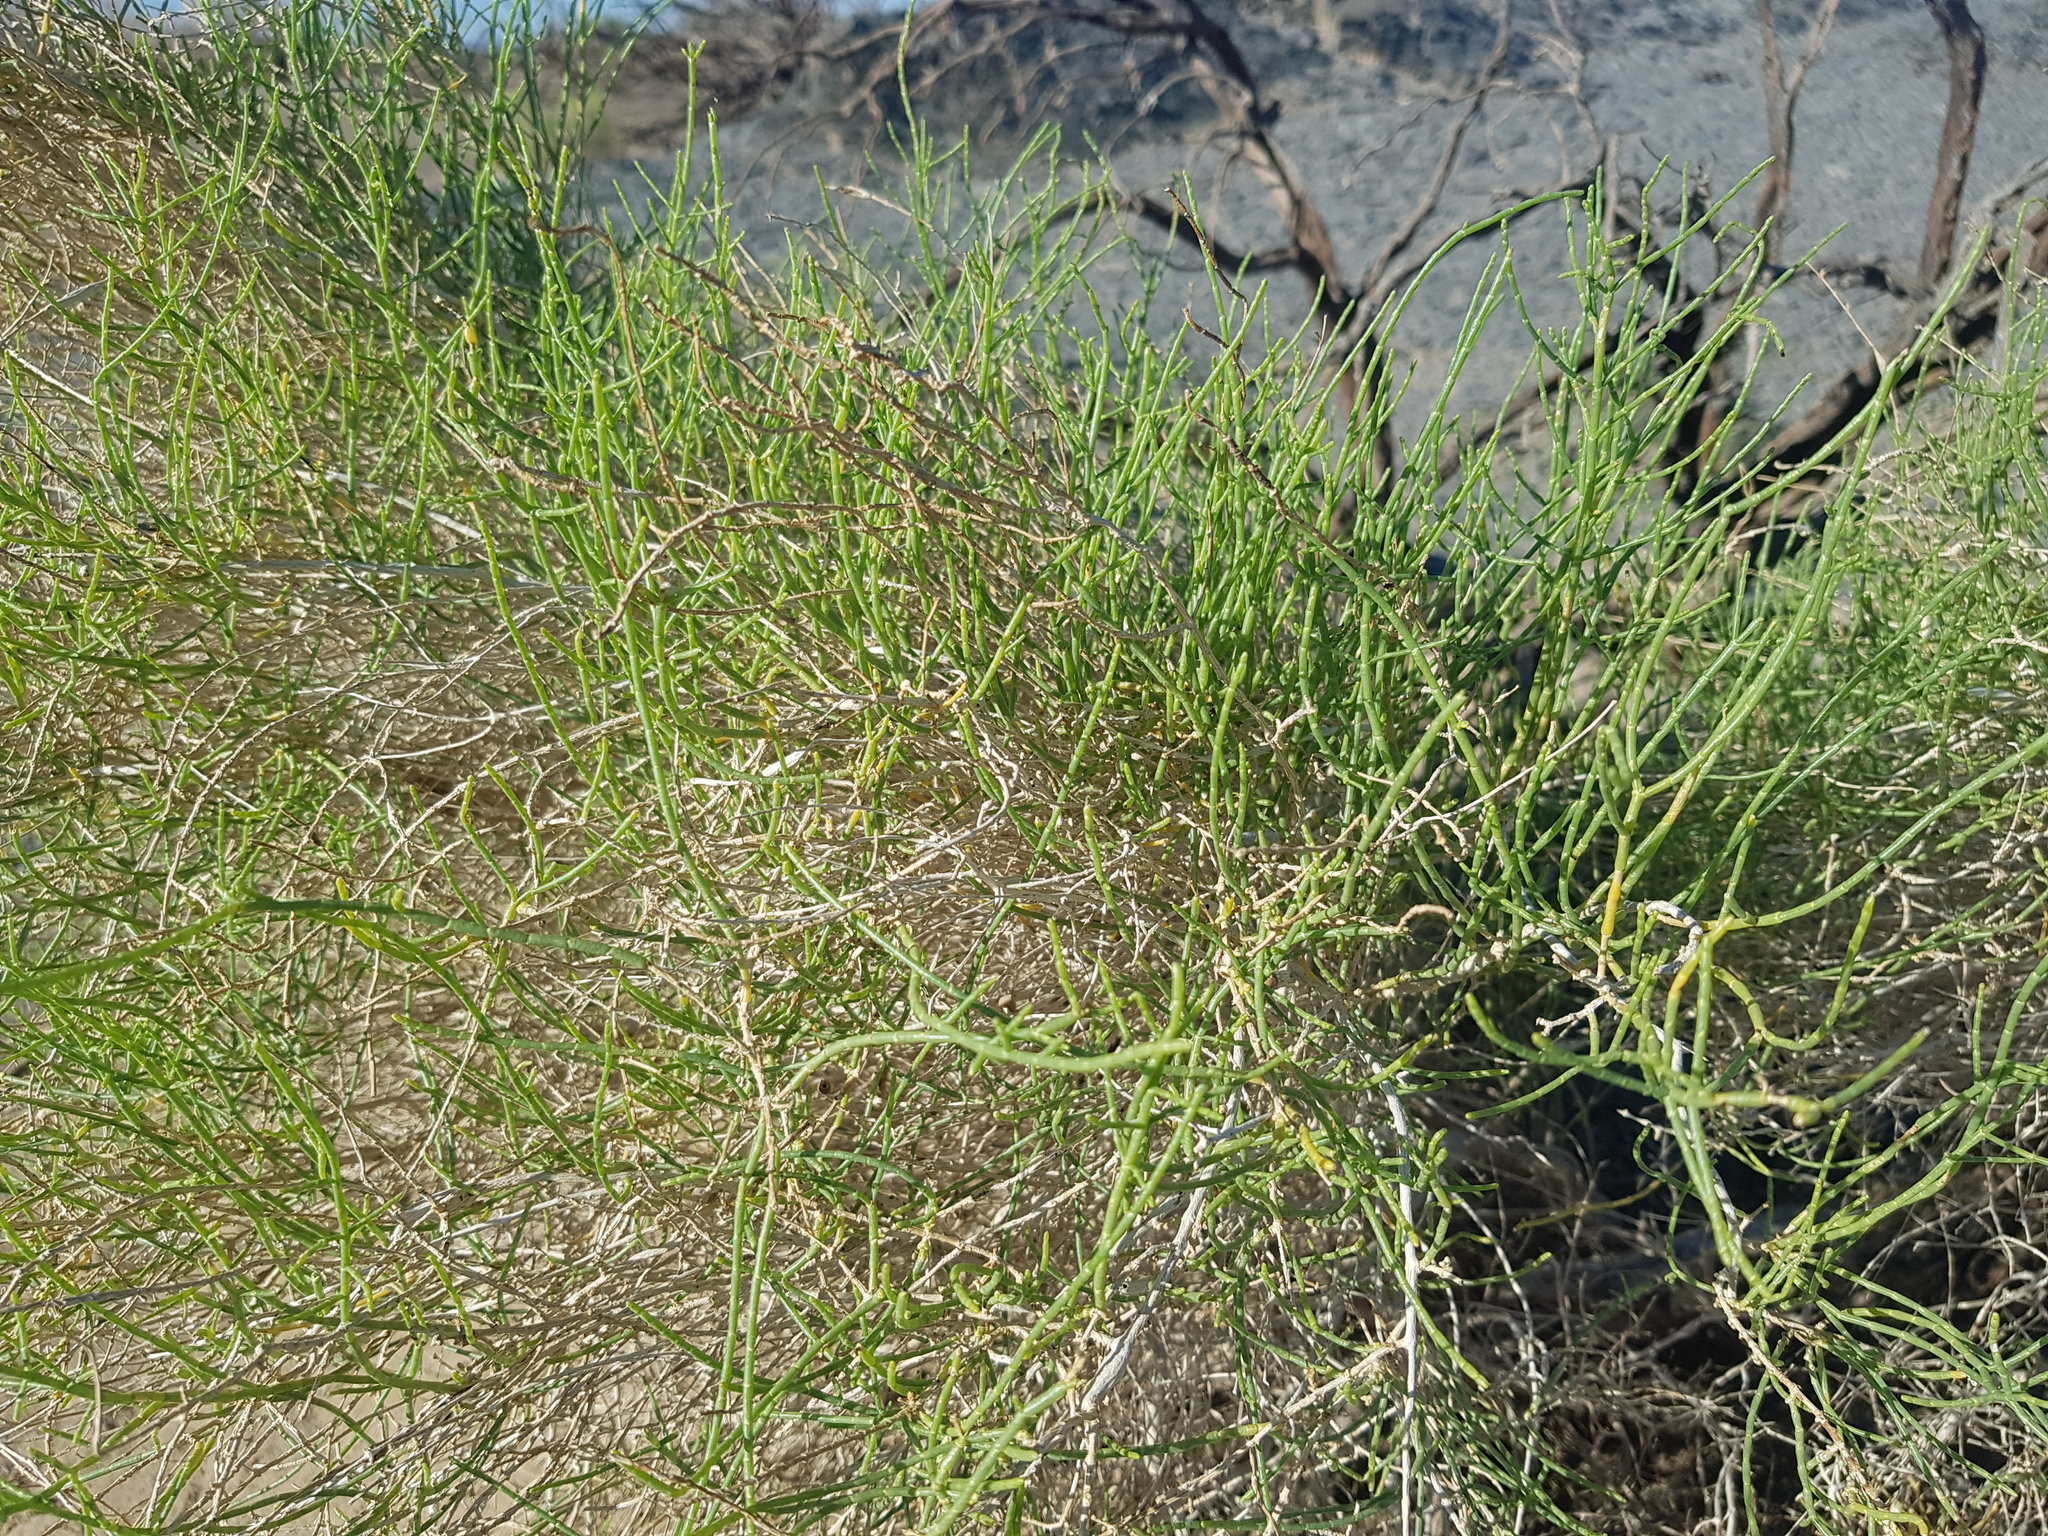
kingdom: Plantae
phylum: Tracheophyta
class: Magnoliopsida
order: Caryophyllales
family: Amaranthaceae
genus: Haloxylon
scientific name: Haloxylon ammodendron
